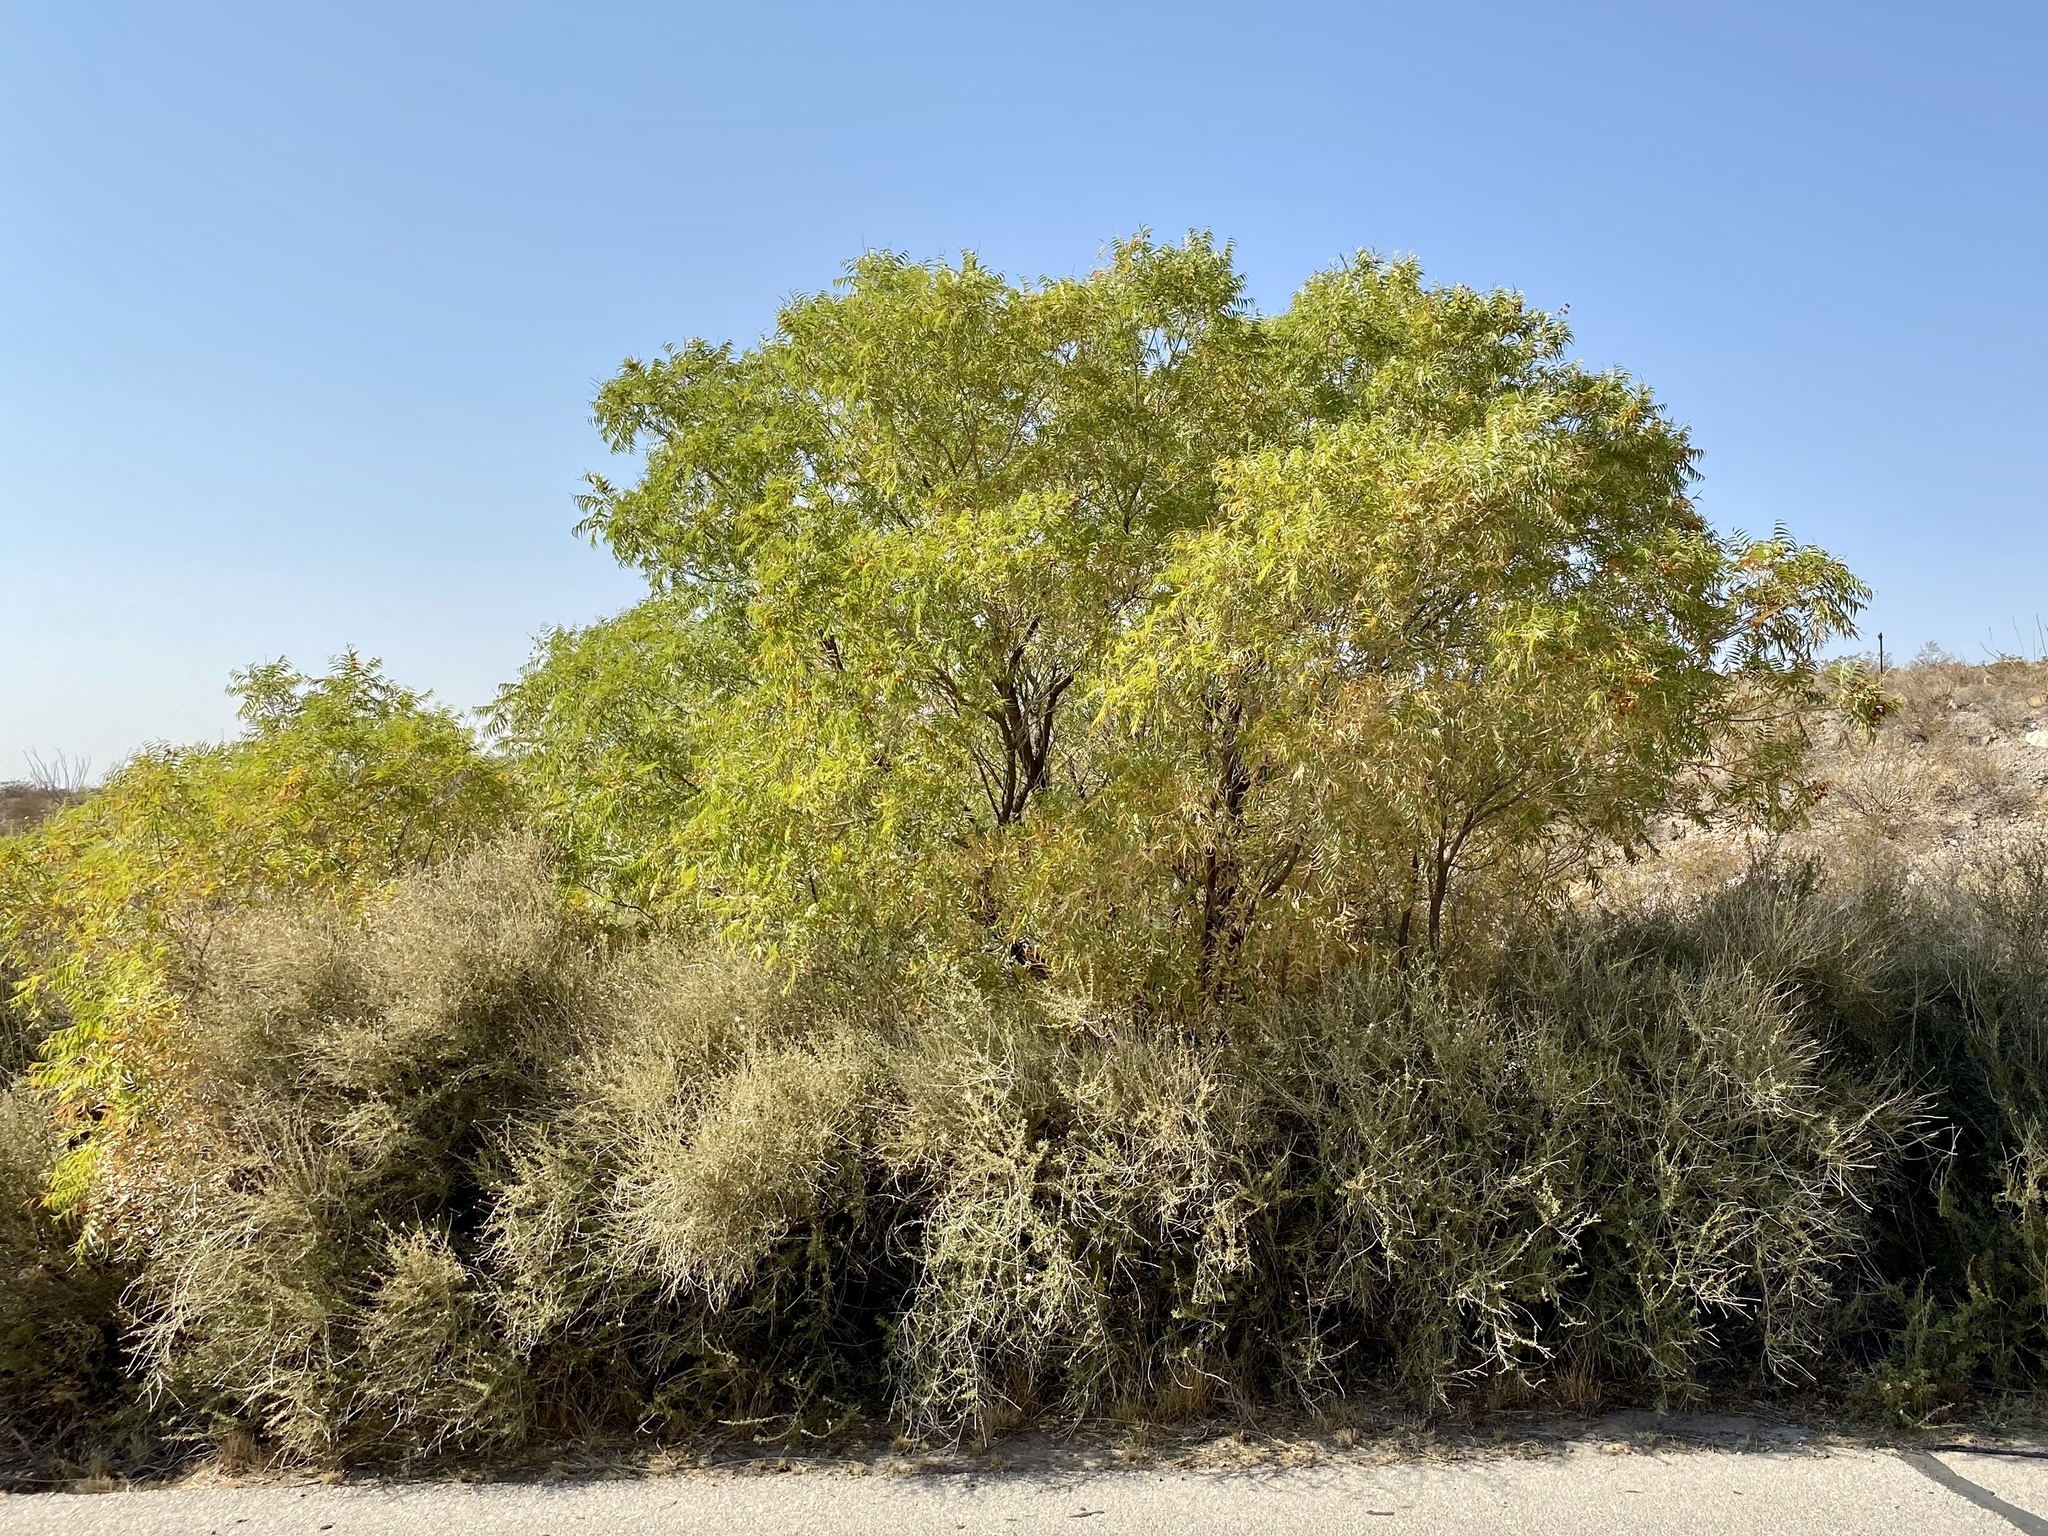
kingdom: Plantae
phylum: Tracheophyta
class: Magnoliopsida
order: Sapindales
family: Sapindaceae
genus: Sapindus
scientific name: Sapindus drummondii
